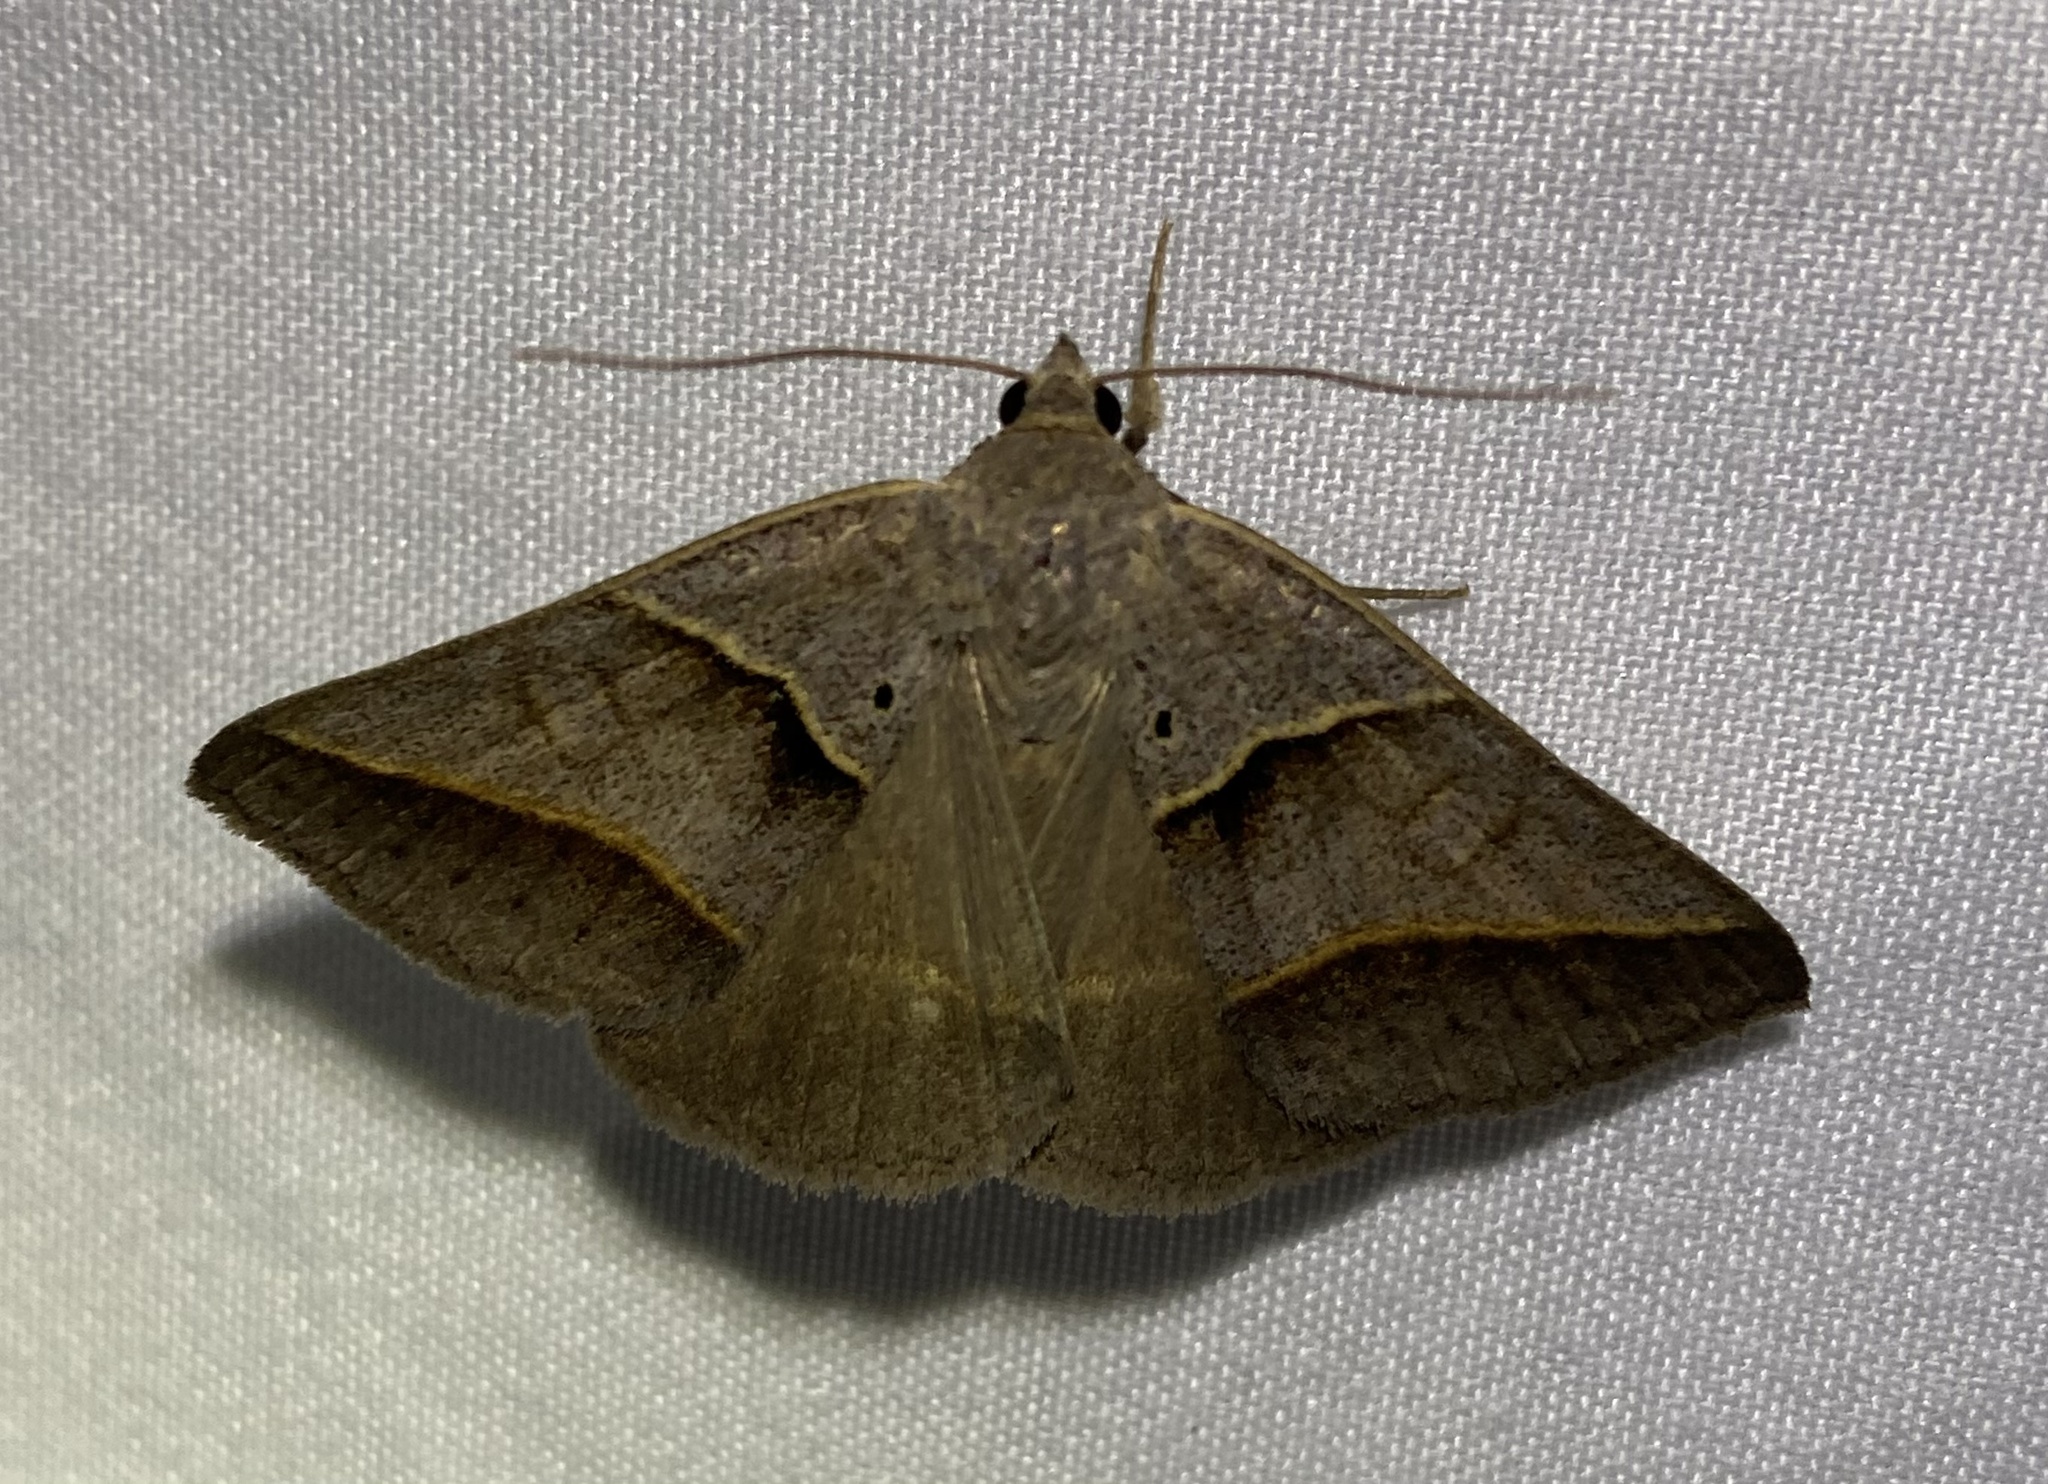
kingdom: Animalia
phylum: Arthropoda
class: Insecta
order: Lepidoptera
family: Erebidae
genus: Ptichodis
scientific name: Ptichodis herbarum
